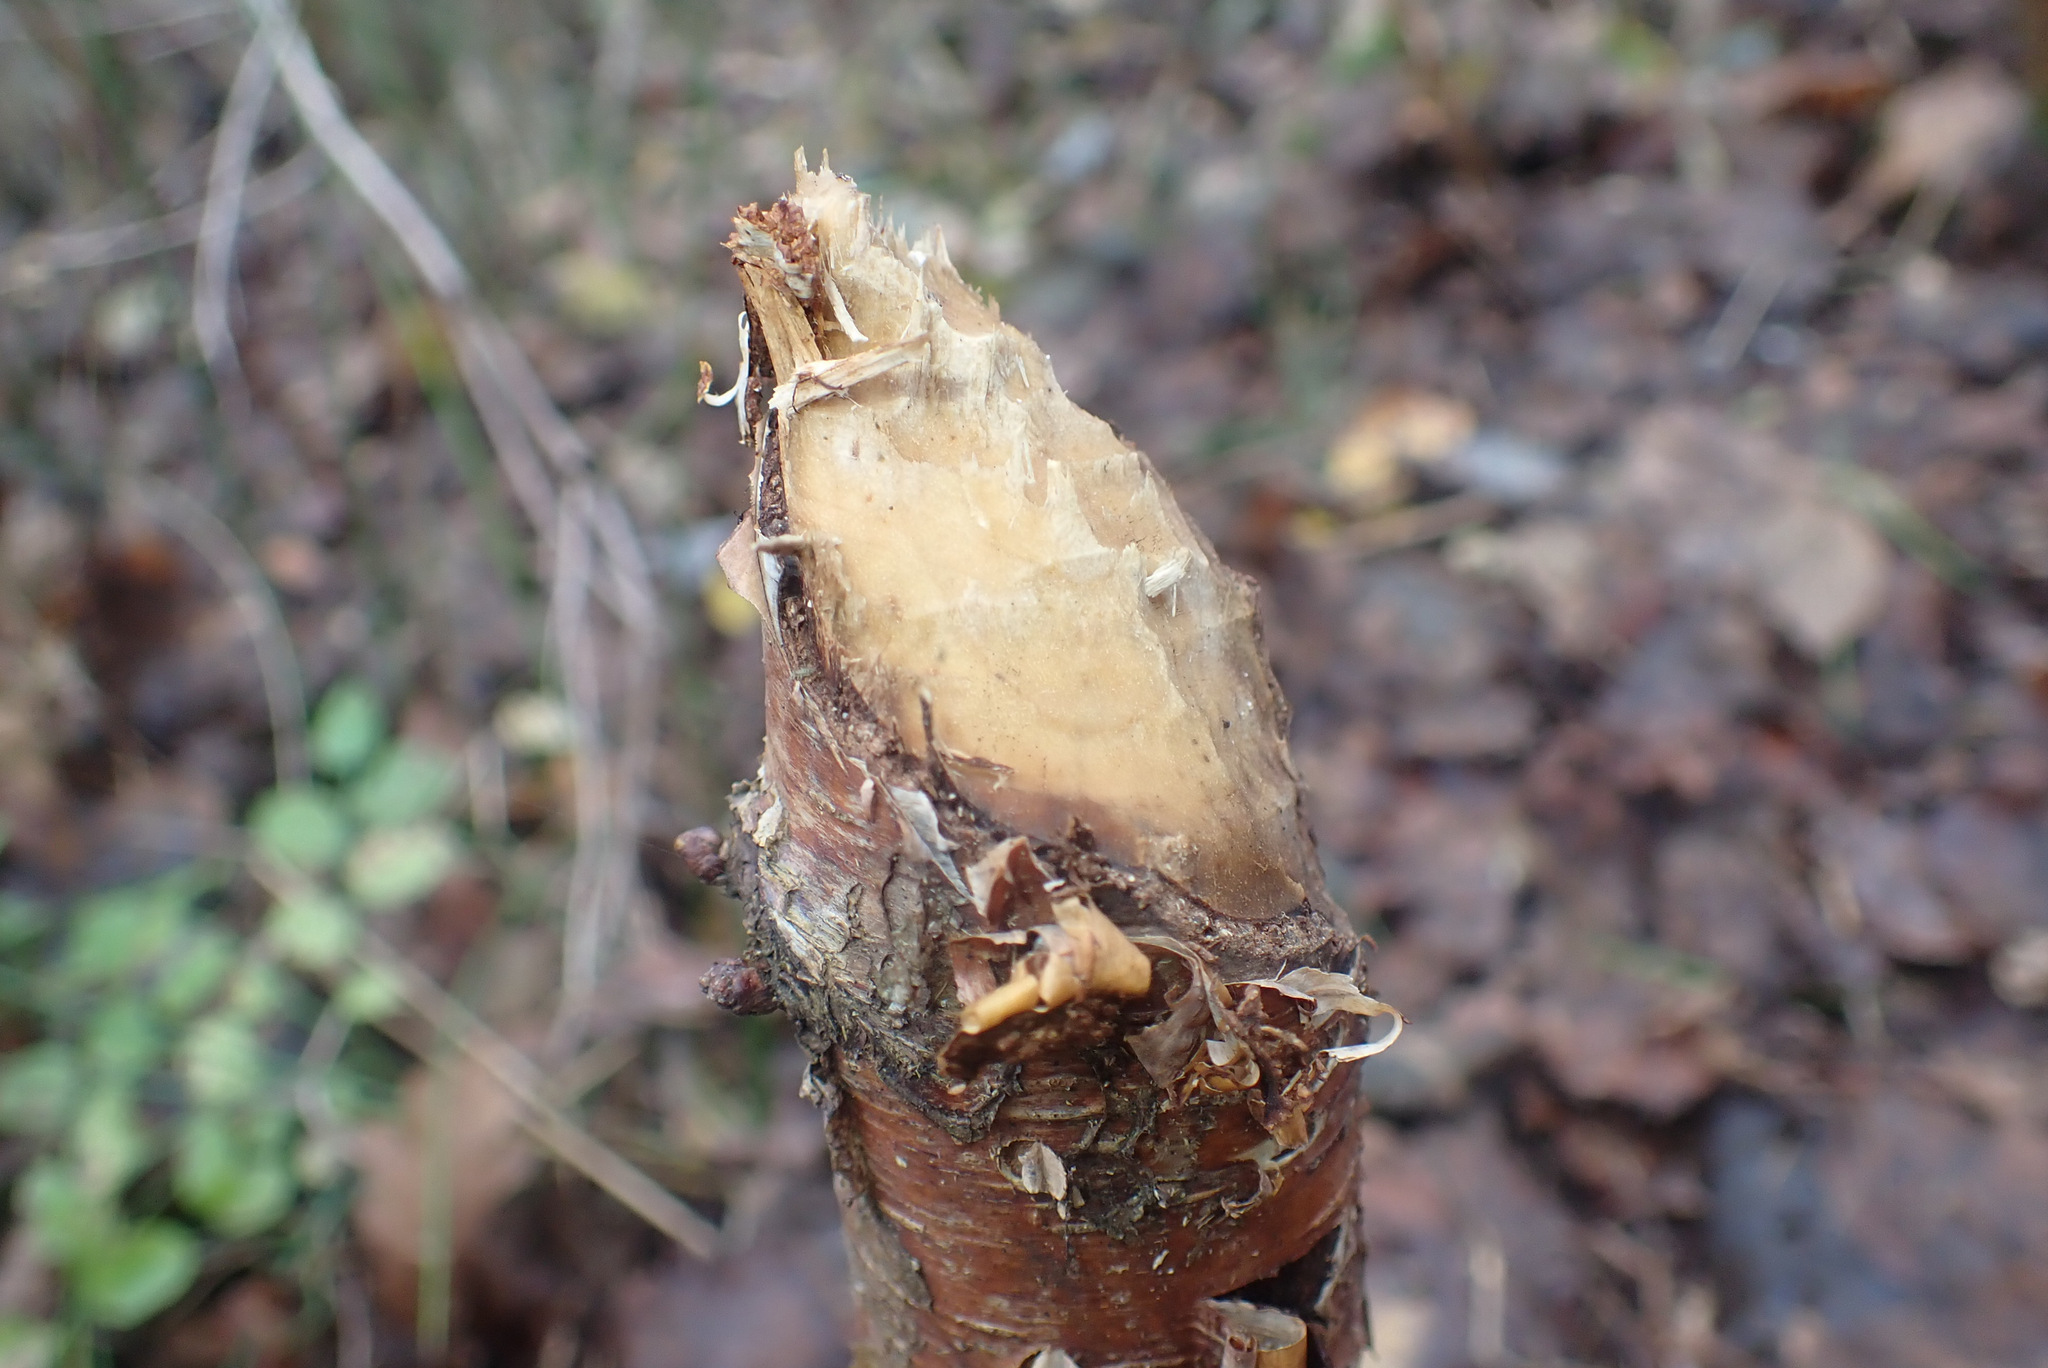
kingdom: Animalia
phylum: Chordata
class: Mammalia
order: Rodentia
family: Castoridae
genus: Castor
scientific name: Castor fiber
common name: Eurasian beaver
